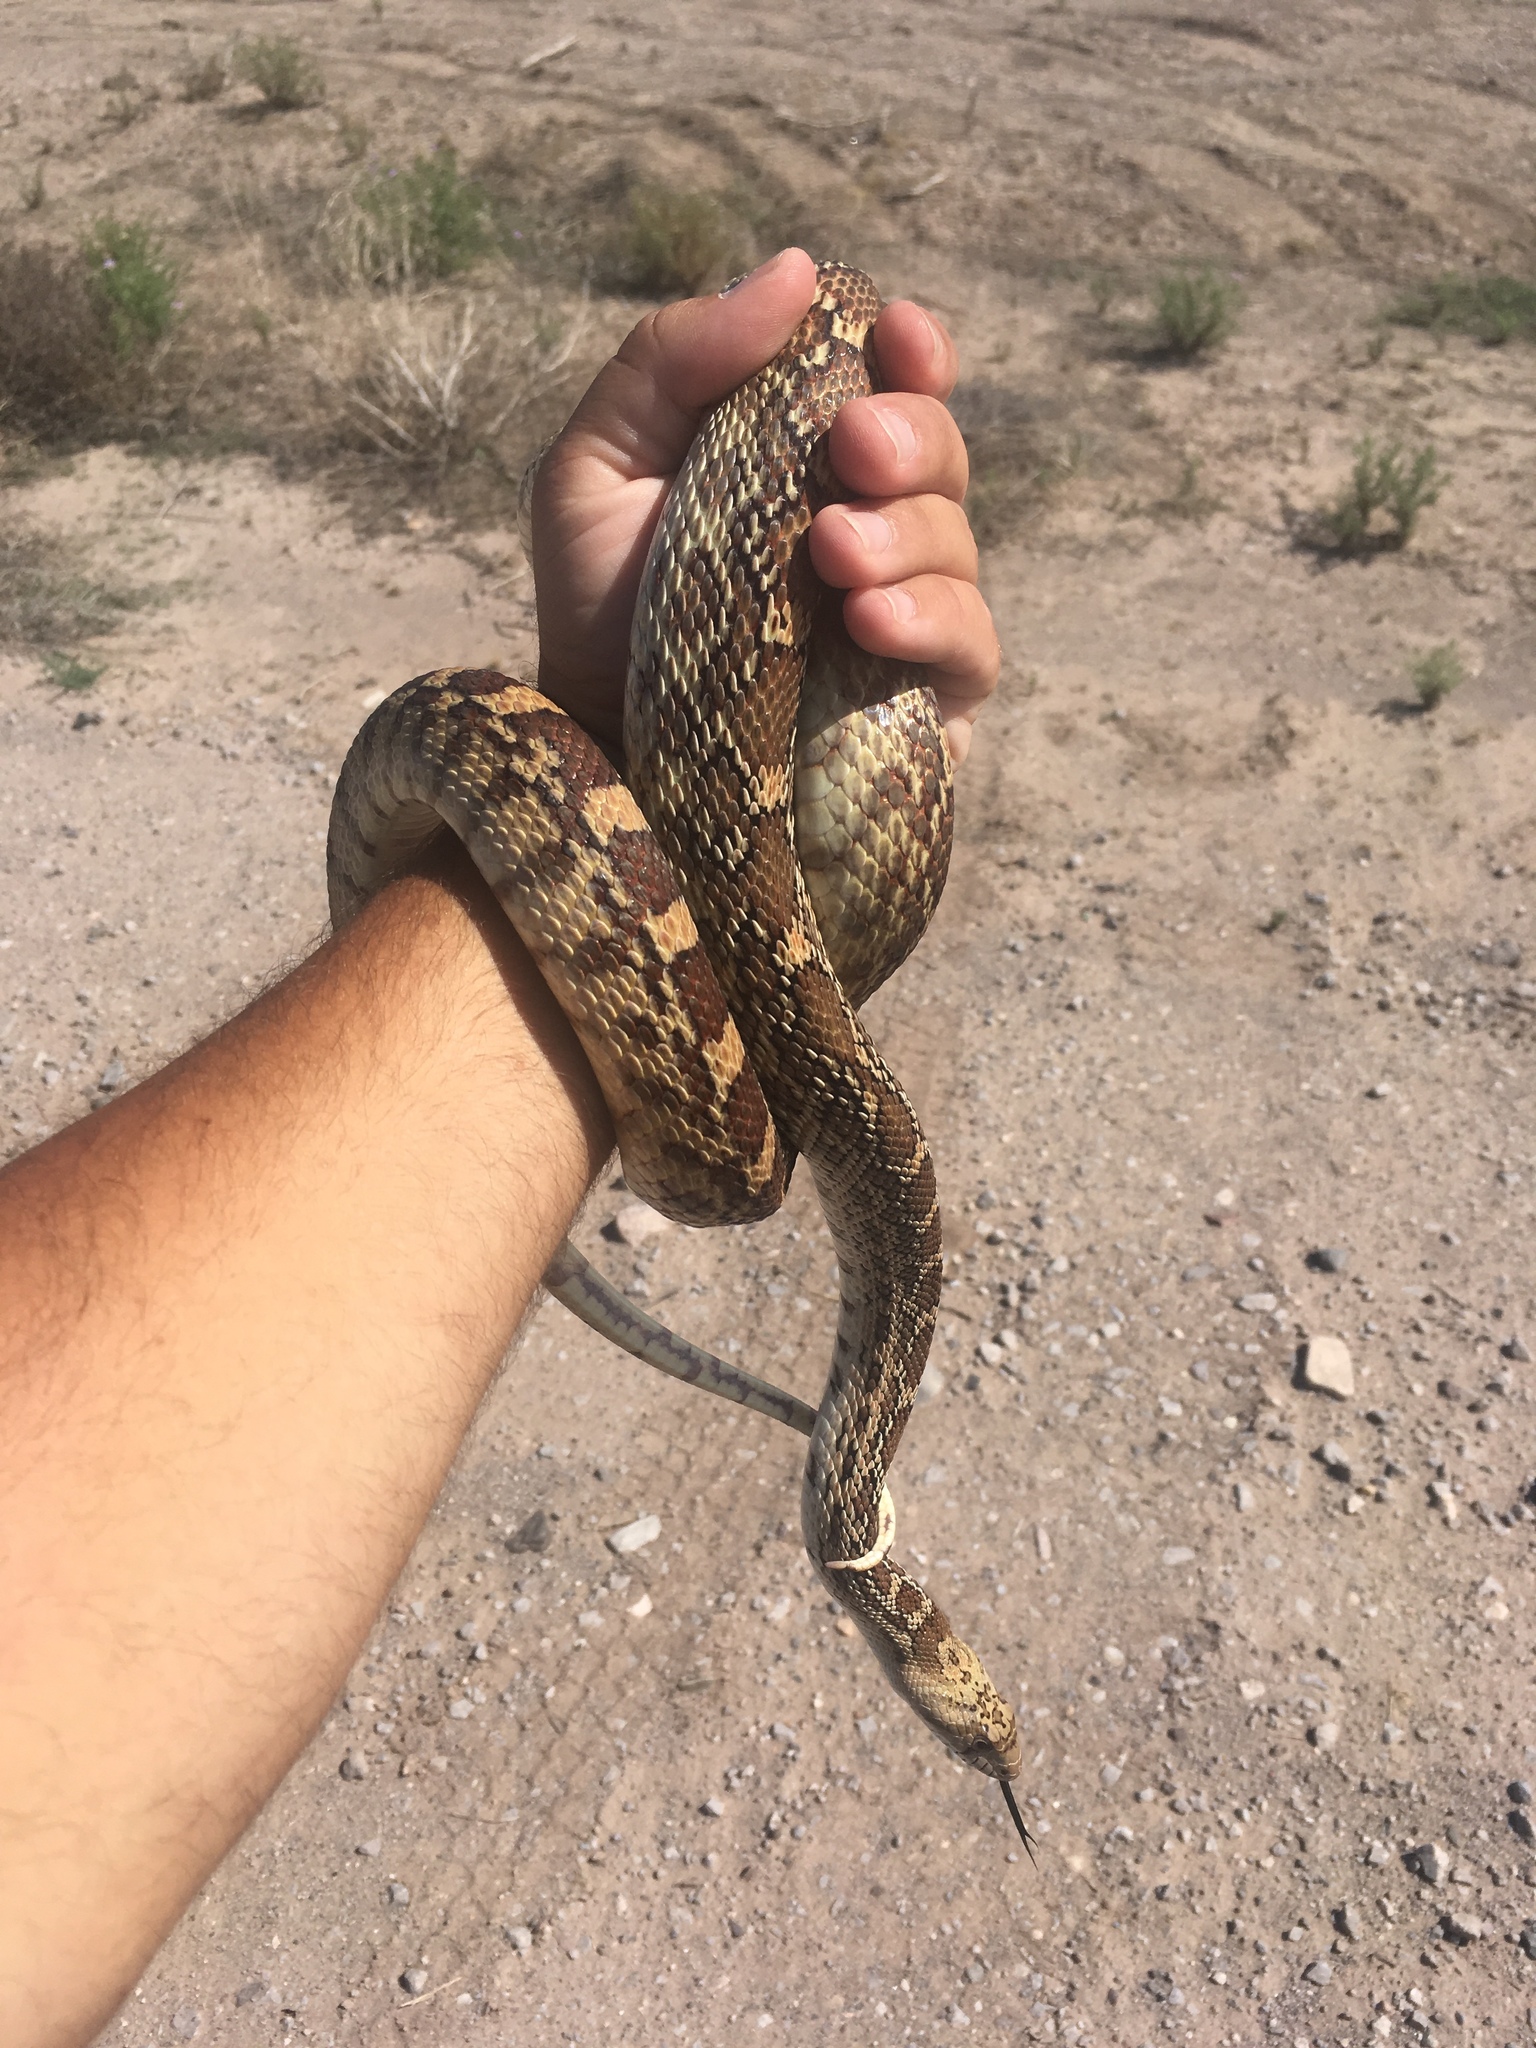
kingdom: Animalia
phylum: Chordata
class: Squamata
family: Colubridae
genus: Pituophis
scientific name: Pituophis catenifer
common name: Gopher snake
